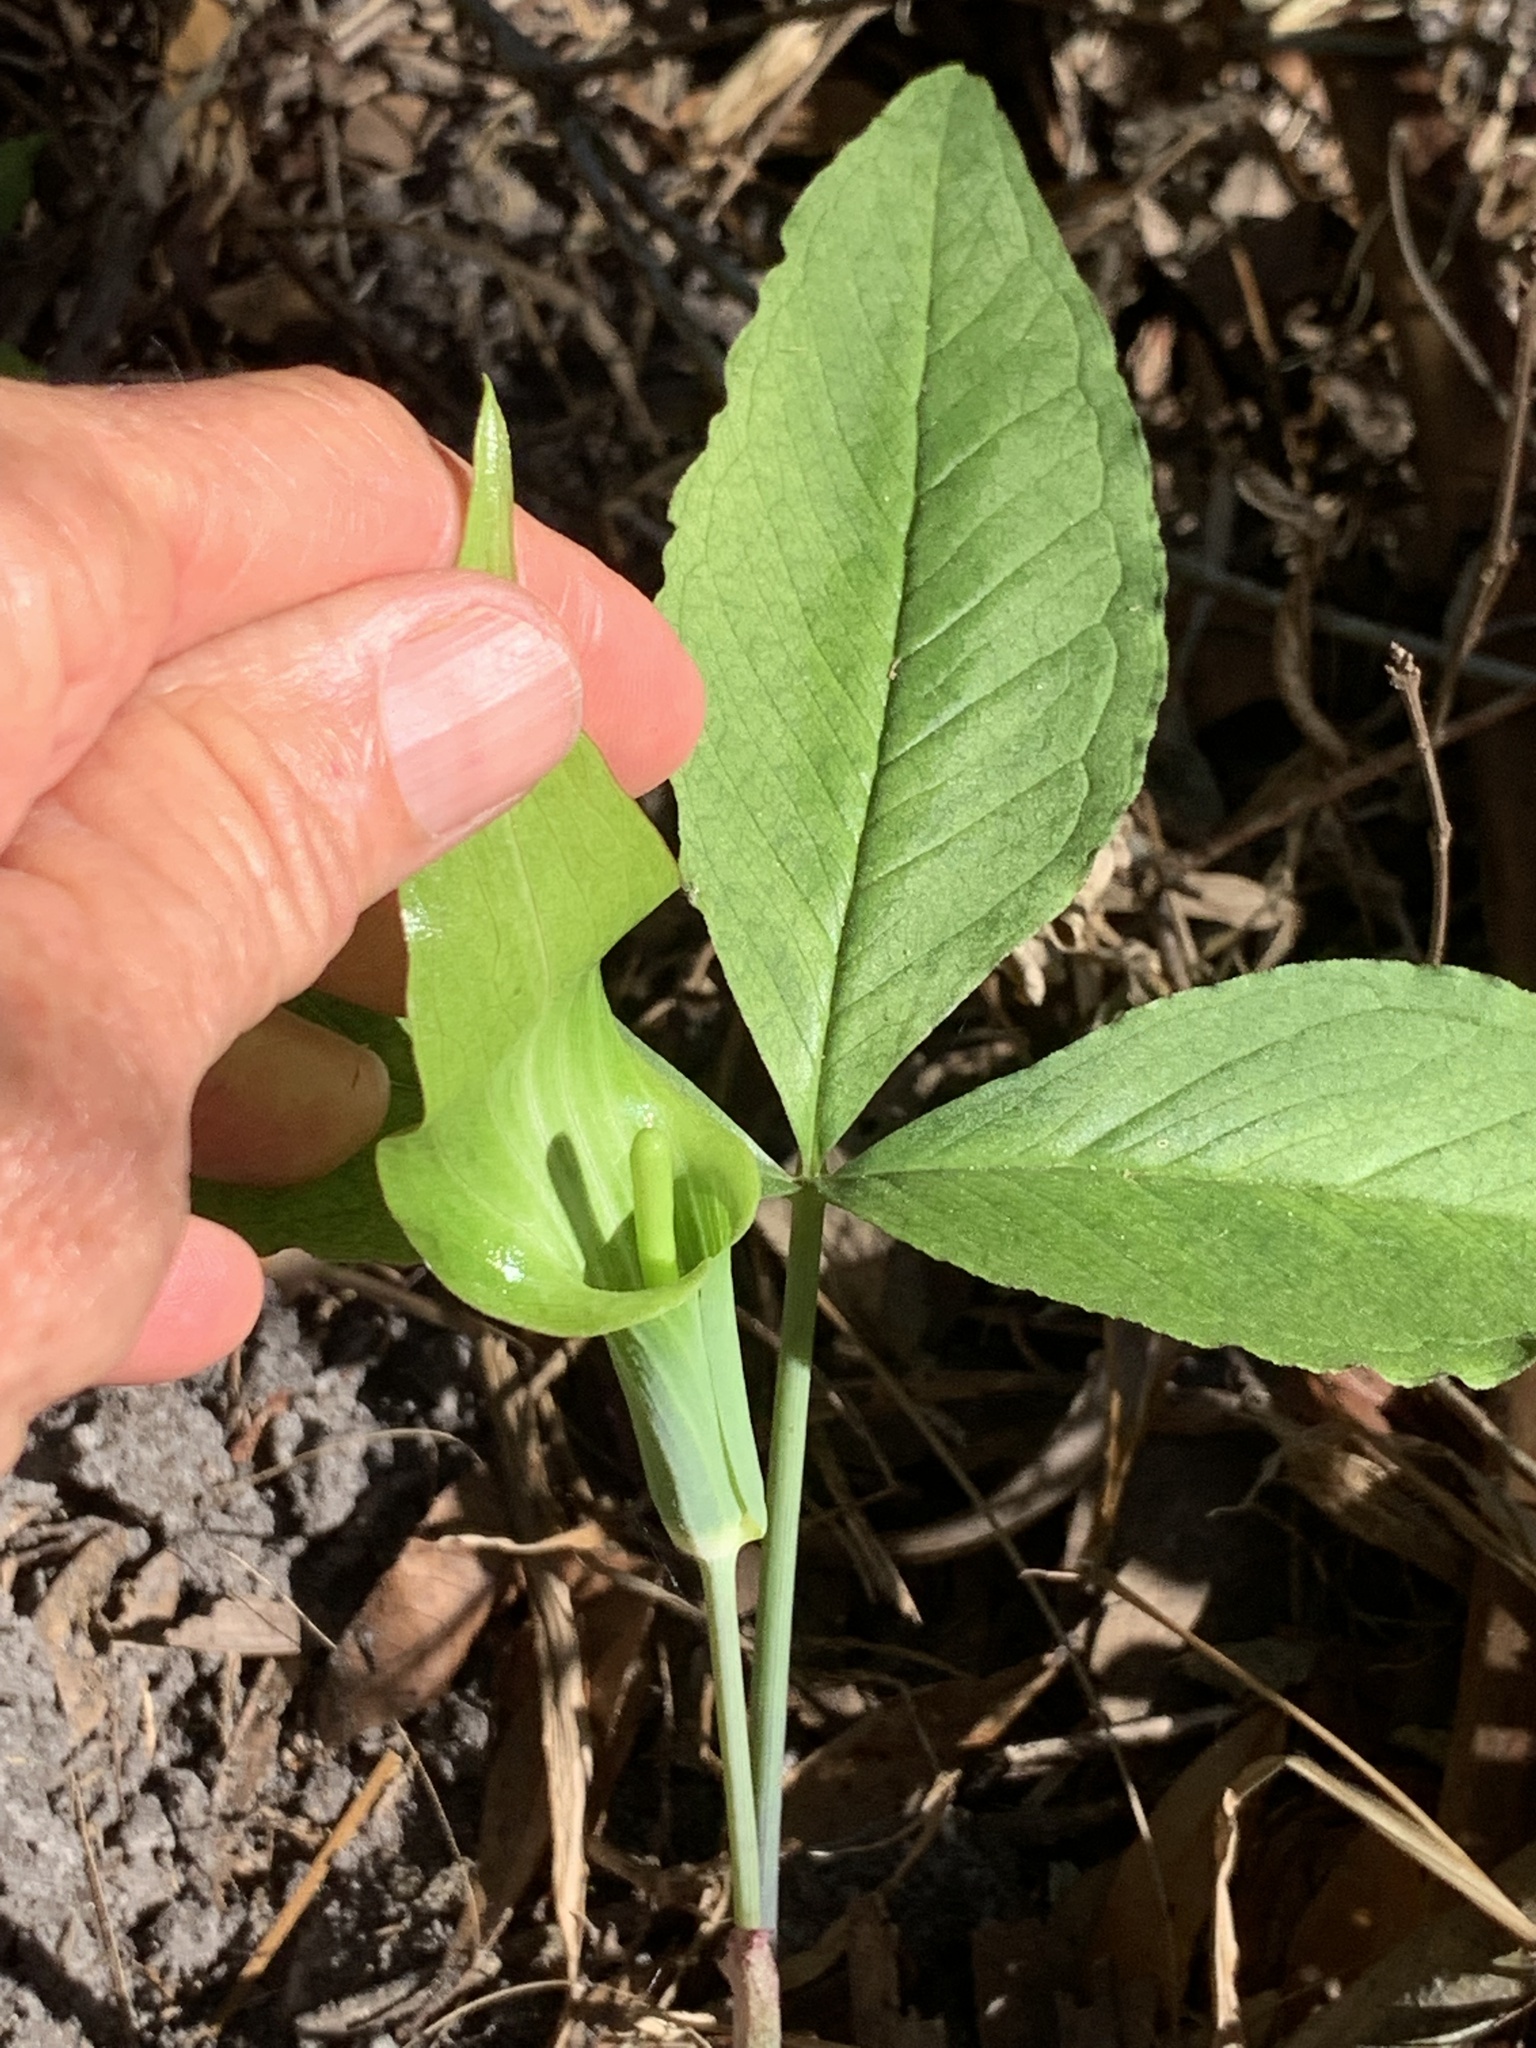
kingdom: Plantae
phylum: Tracheophyta
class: Liliopsida
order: Alismatales
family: Araceae
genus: Arisaema
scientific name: Arisaema acuminatum
